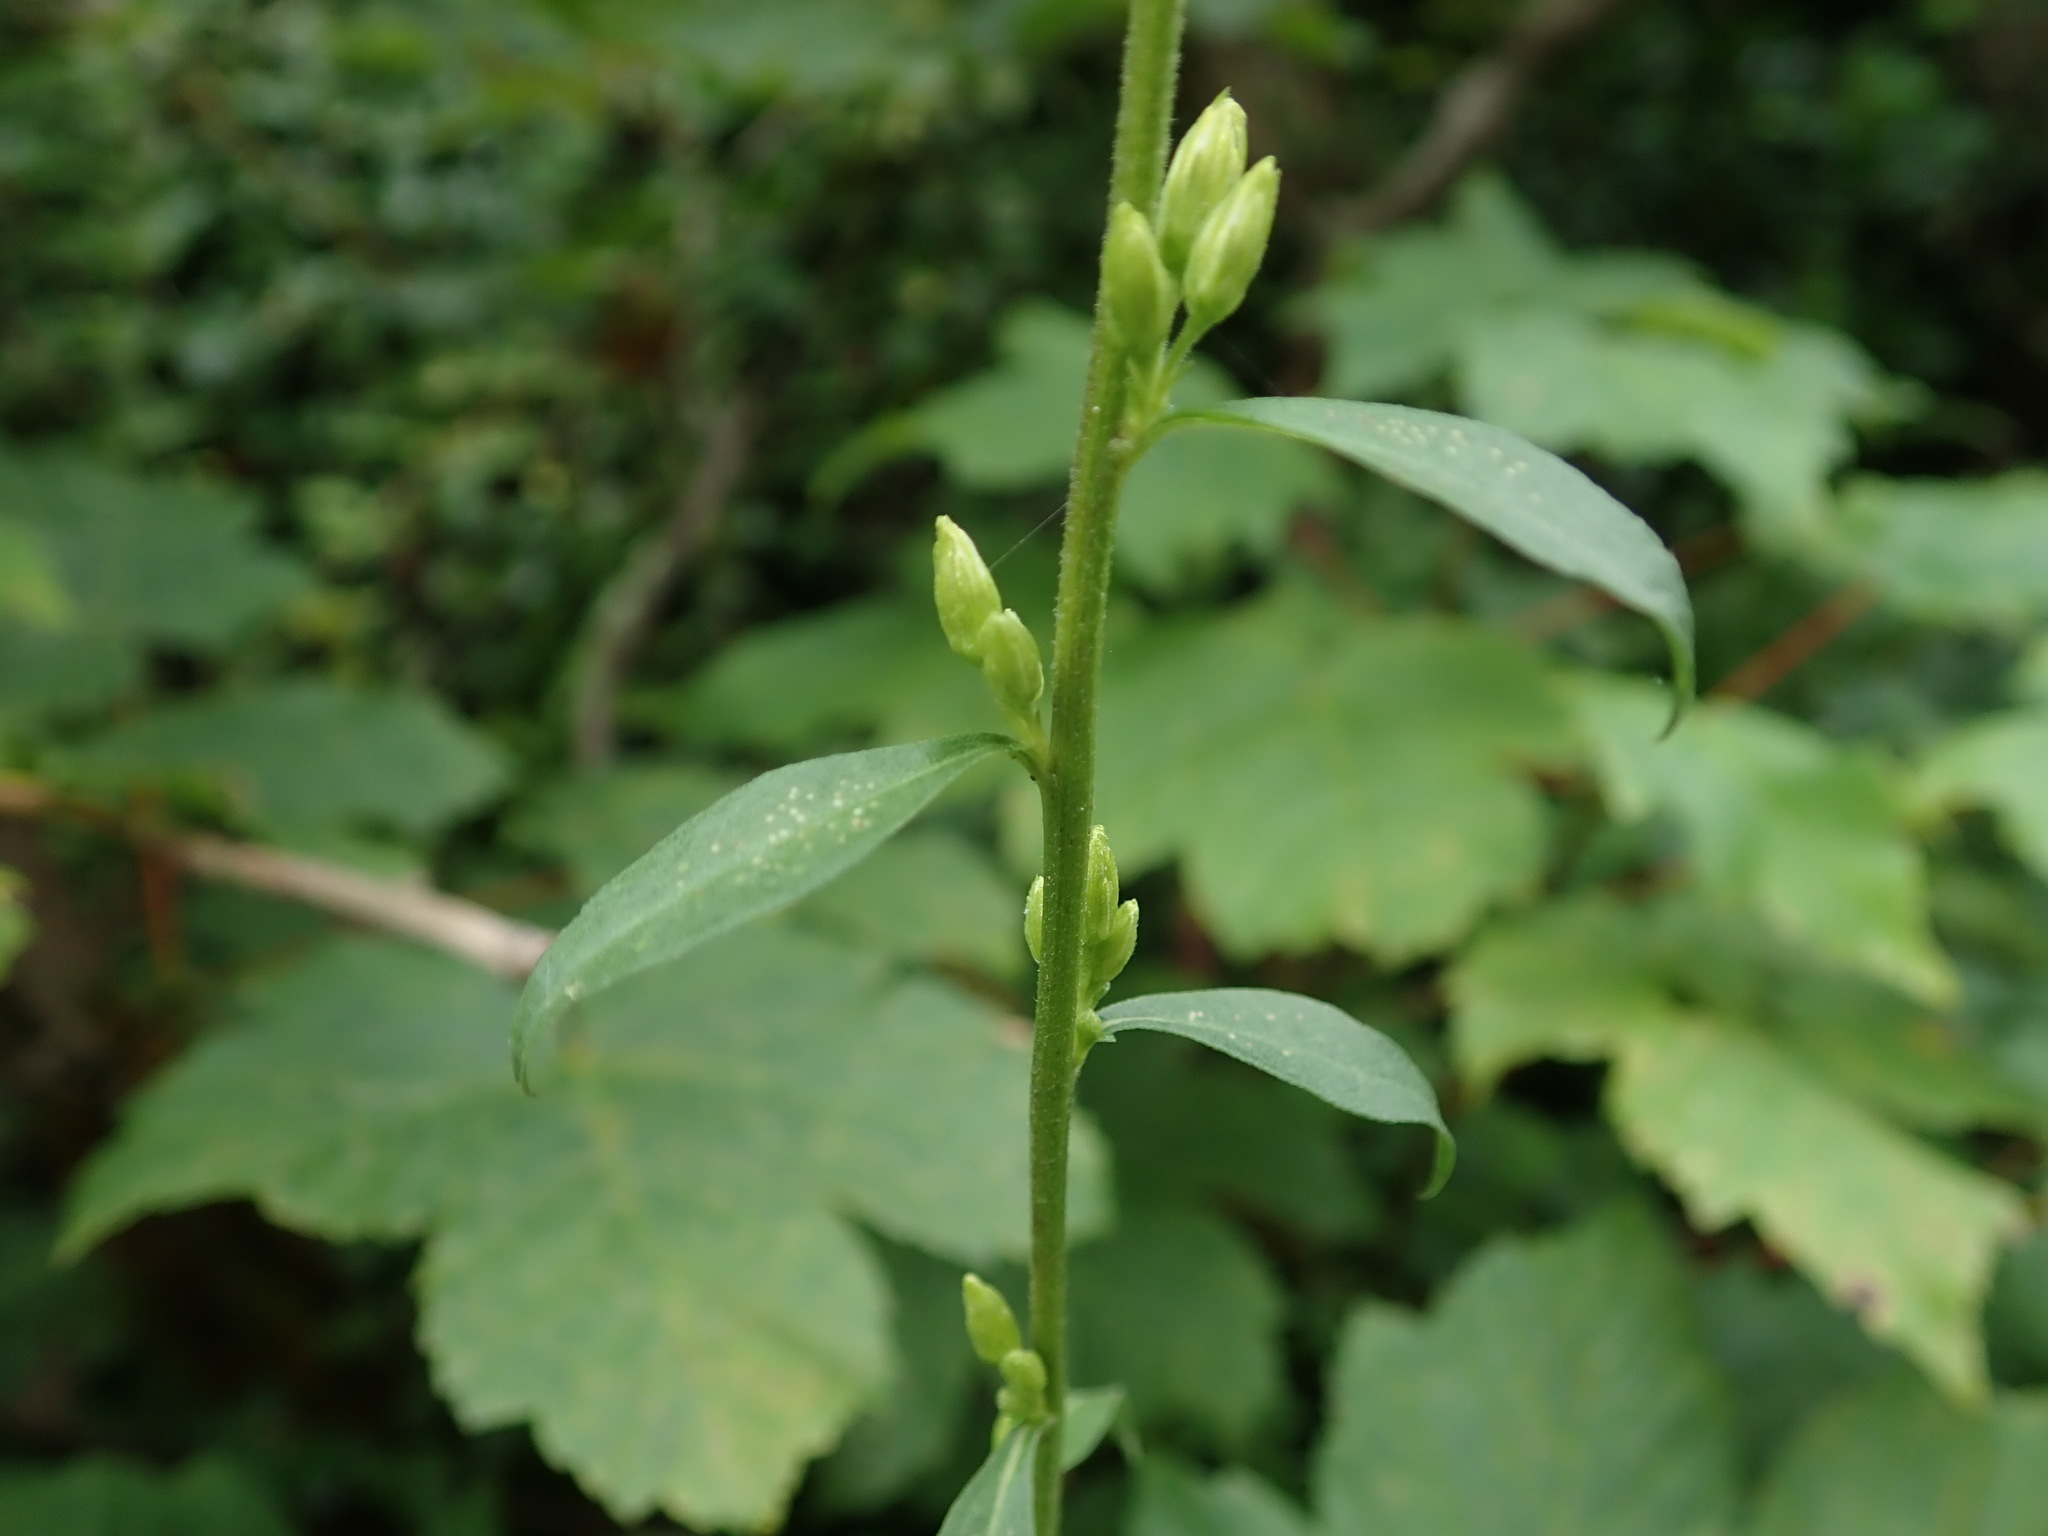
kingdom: Plantae
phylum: Tracheophyta
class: Magnoliopsida
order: Asterales
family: Asteraceae
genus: Solidago
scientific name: Solidago virgaurea
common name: Goldenrod
